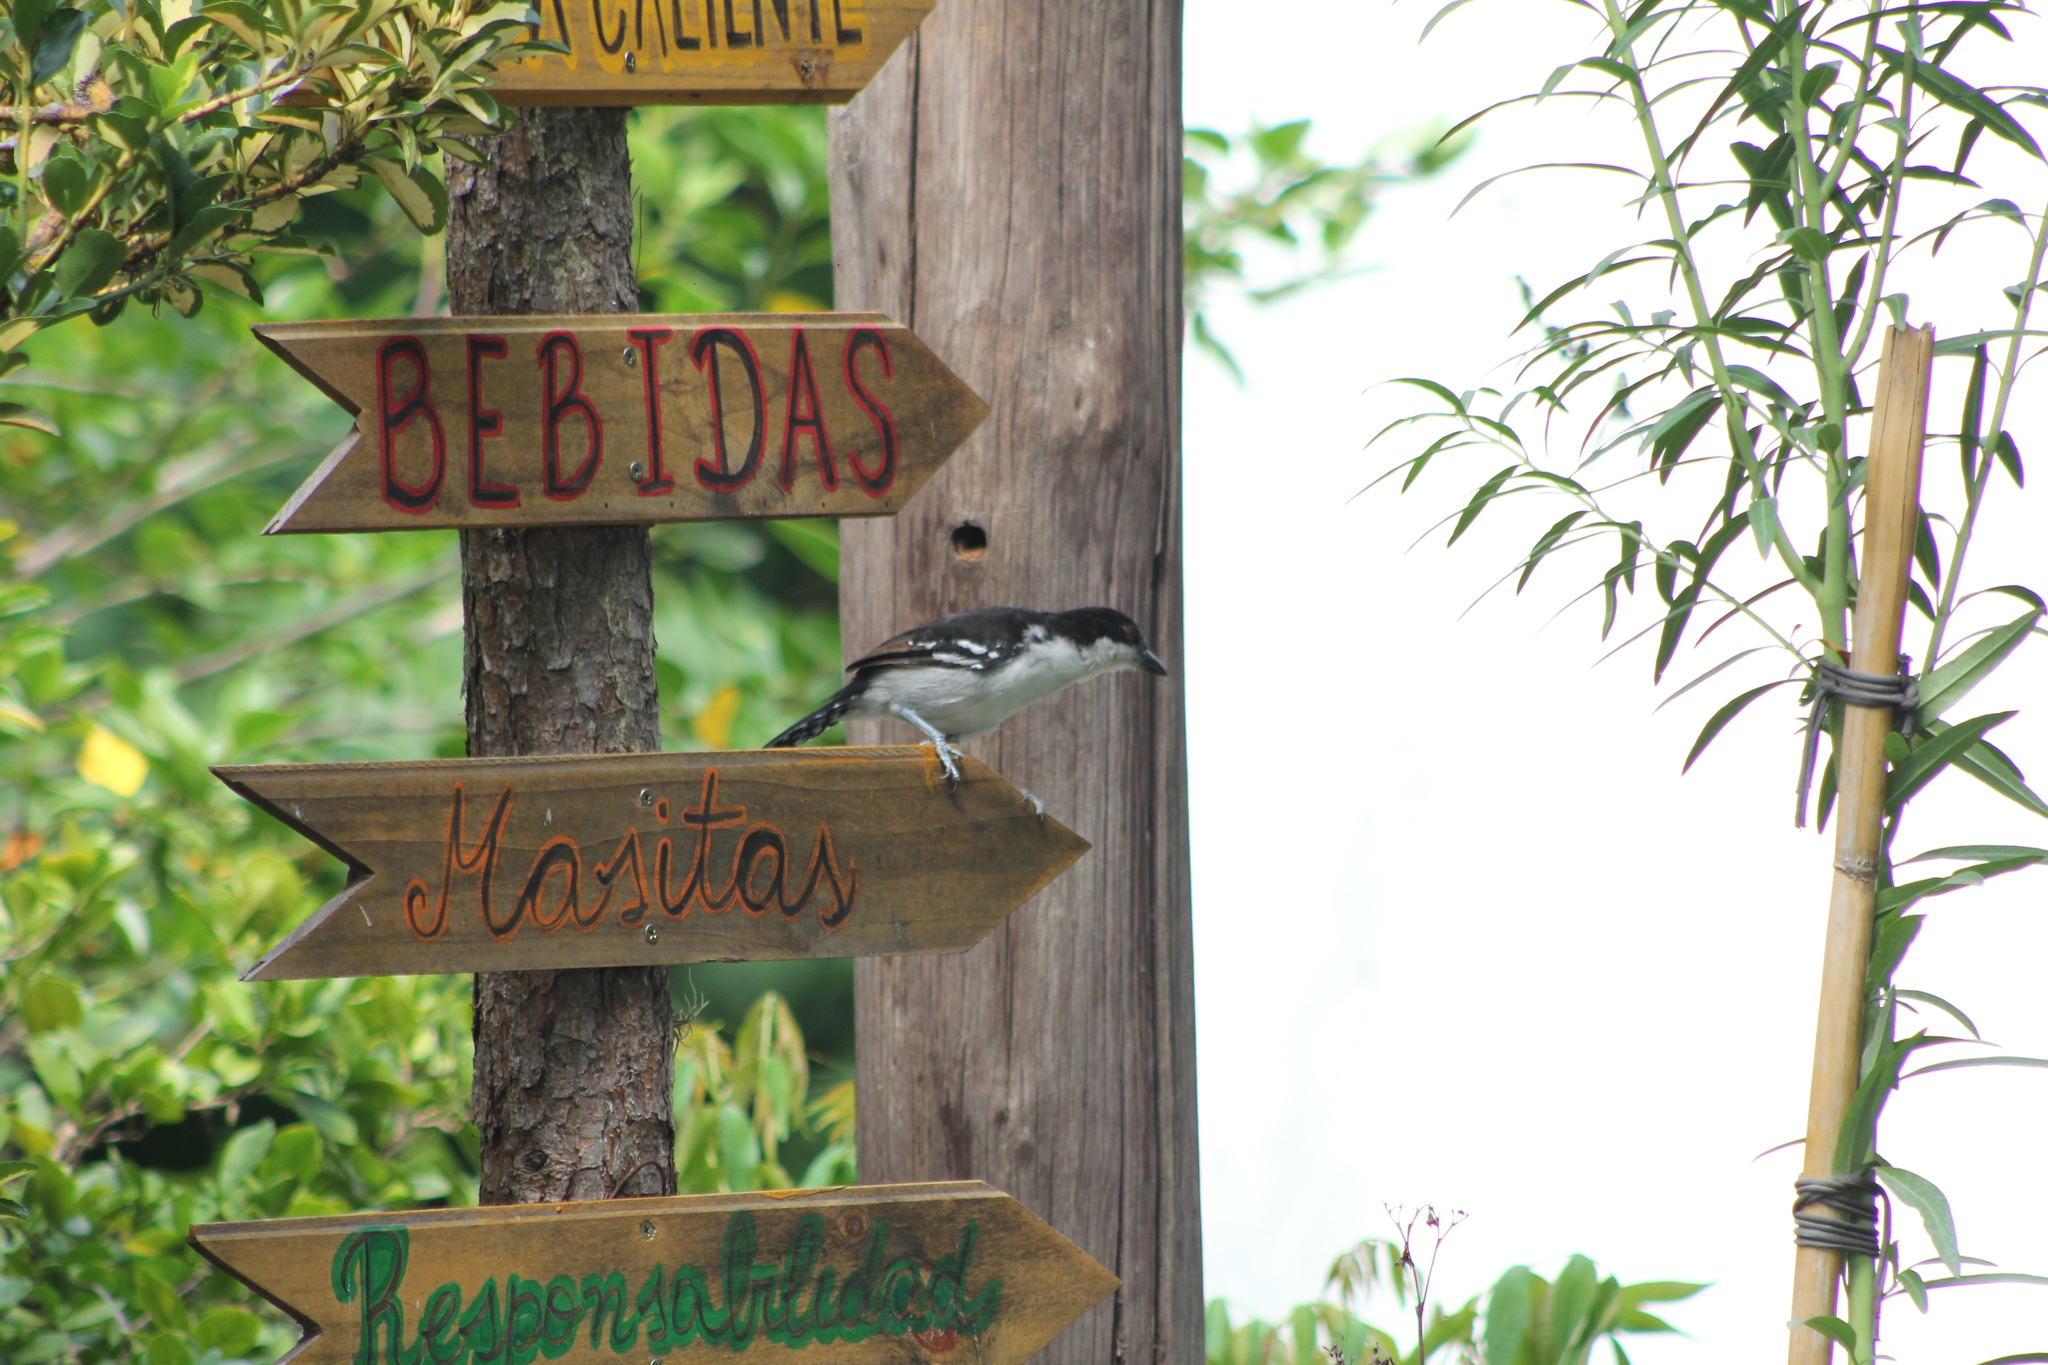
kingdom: Animalia
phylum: Chordata
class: Aves
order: Passeriformes
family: Thamnophilidae
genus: Taraba
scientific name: Taraba major
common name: Great antshrike
